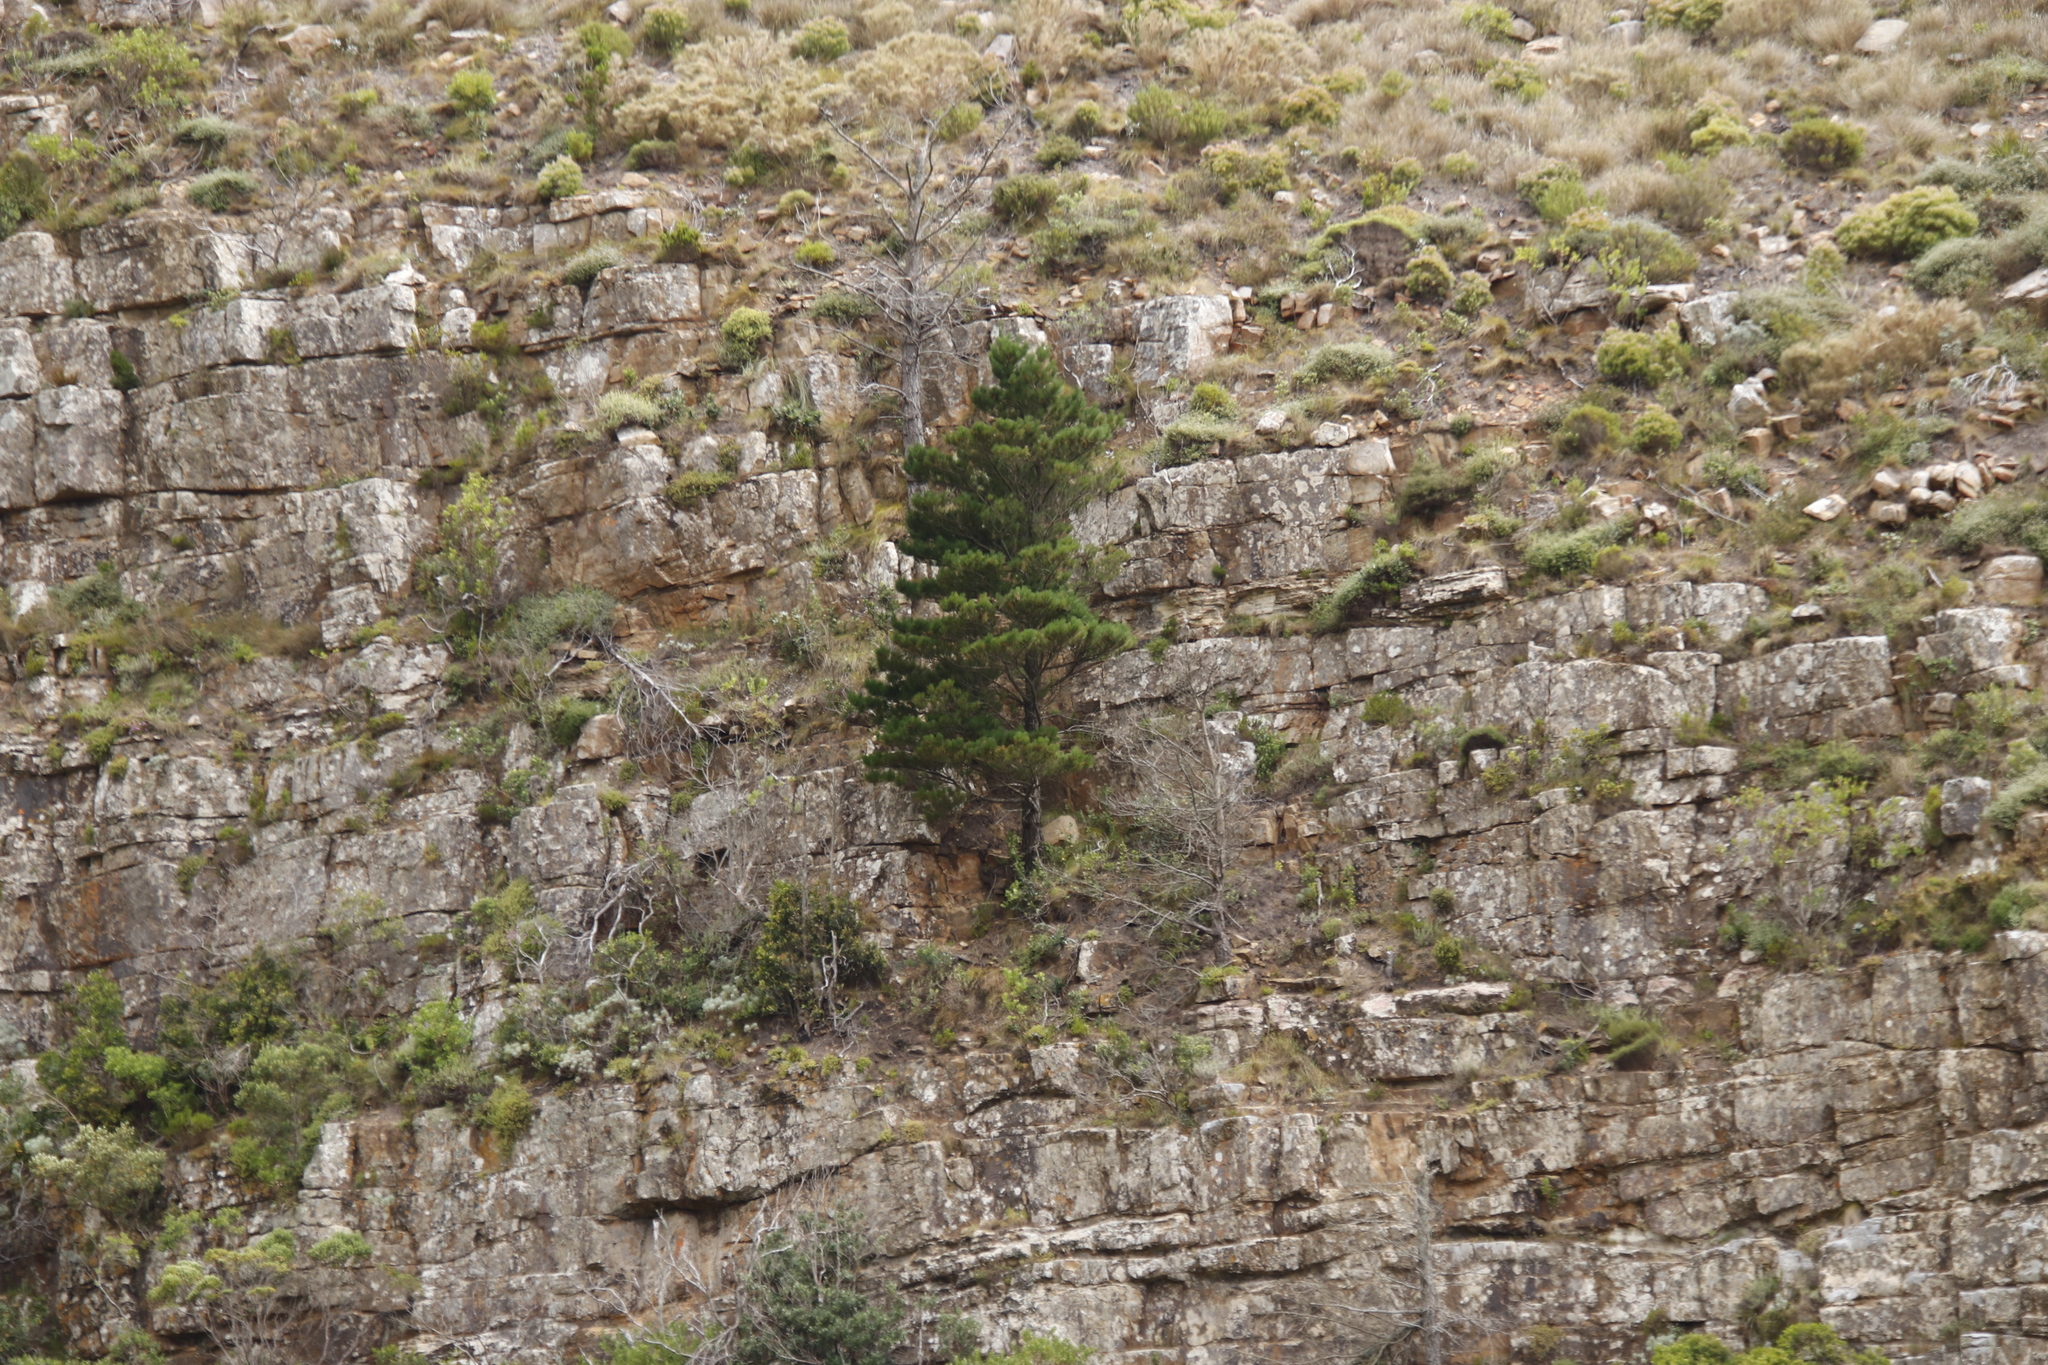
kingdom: Plantae
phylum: Tracheophyta
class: Pinopsida
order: Pinales
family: Pinaceae
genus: Pinus
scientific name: Pinus radiata
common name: Monterey pine
